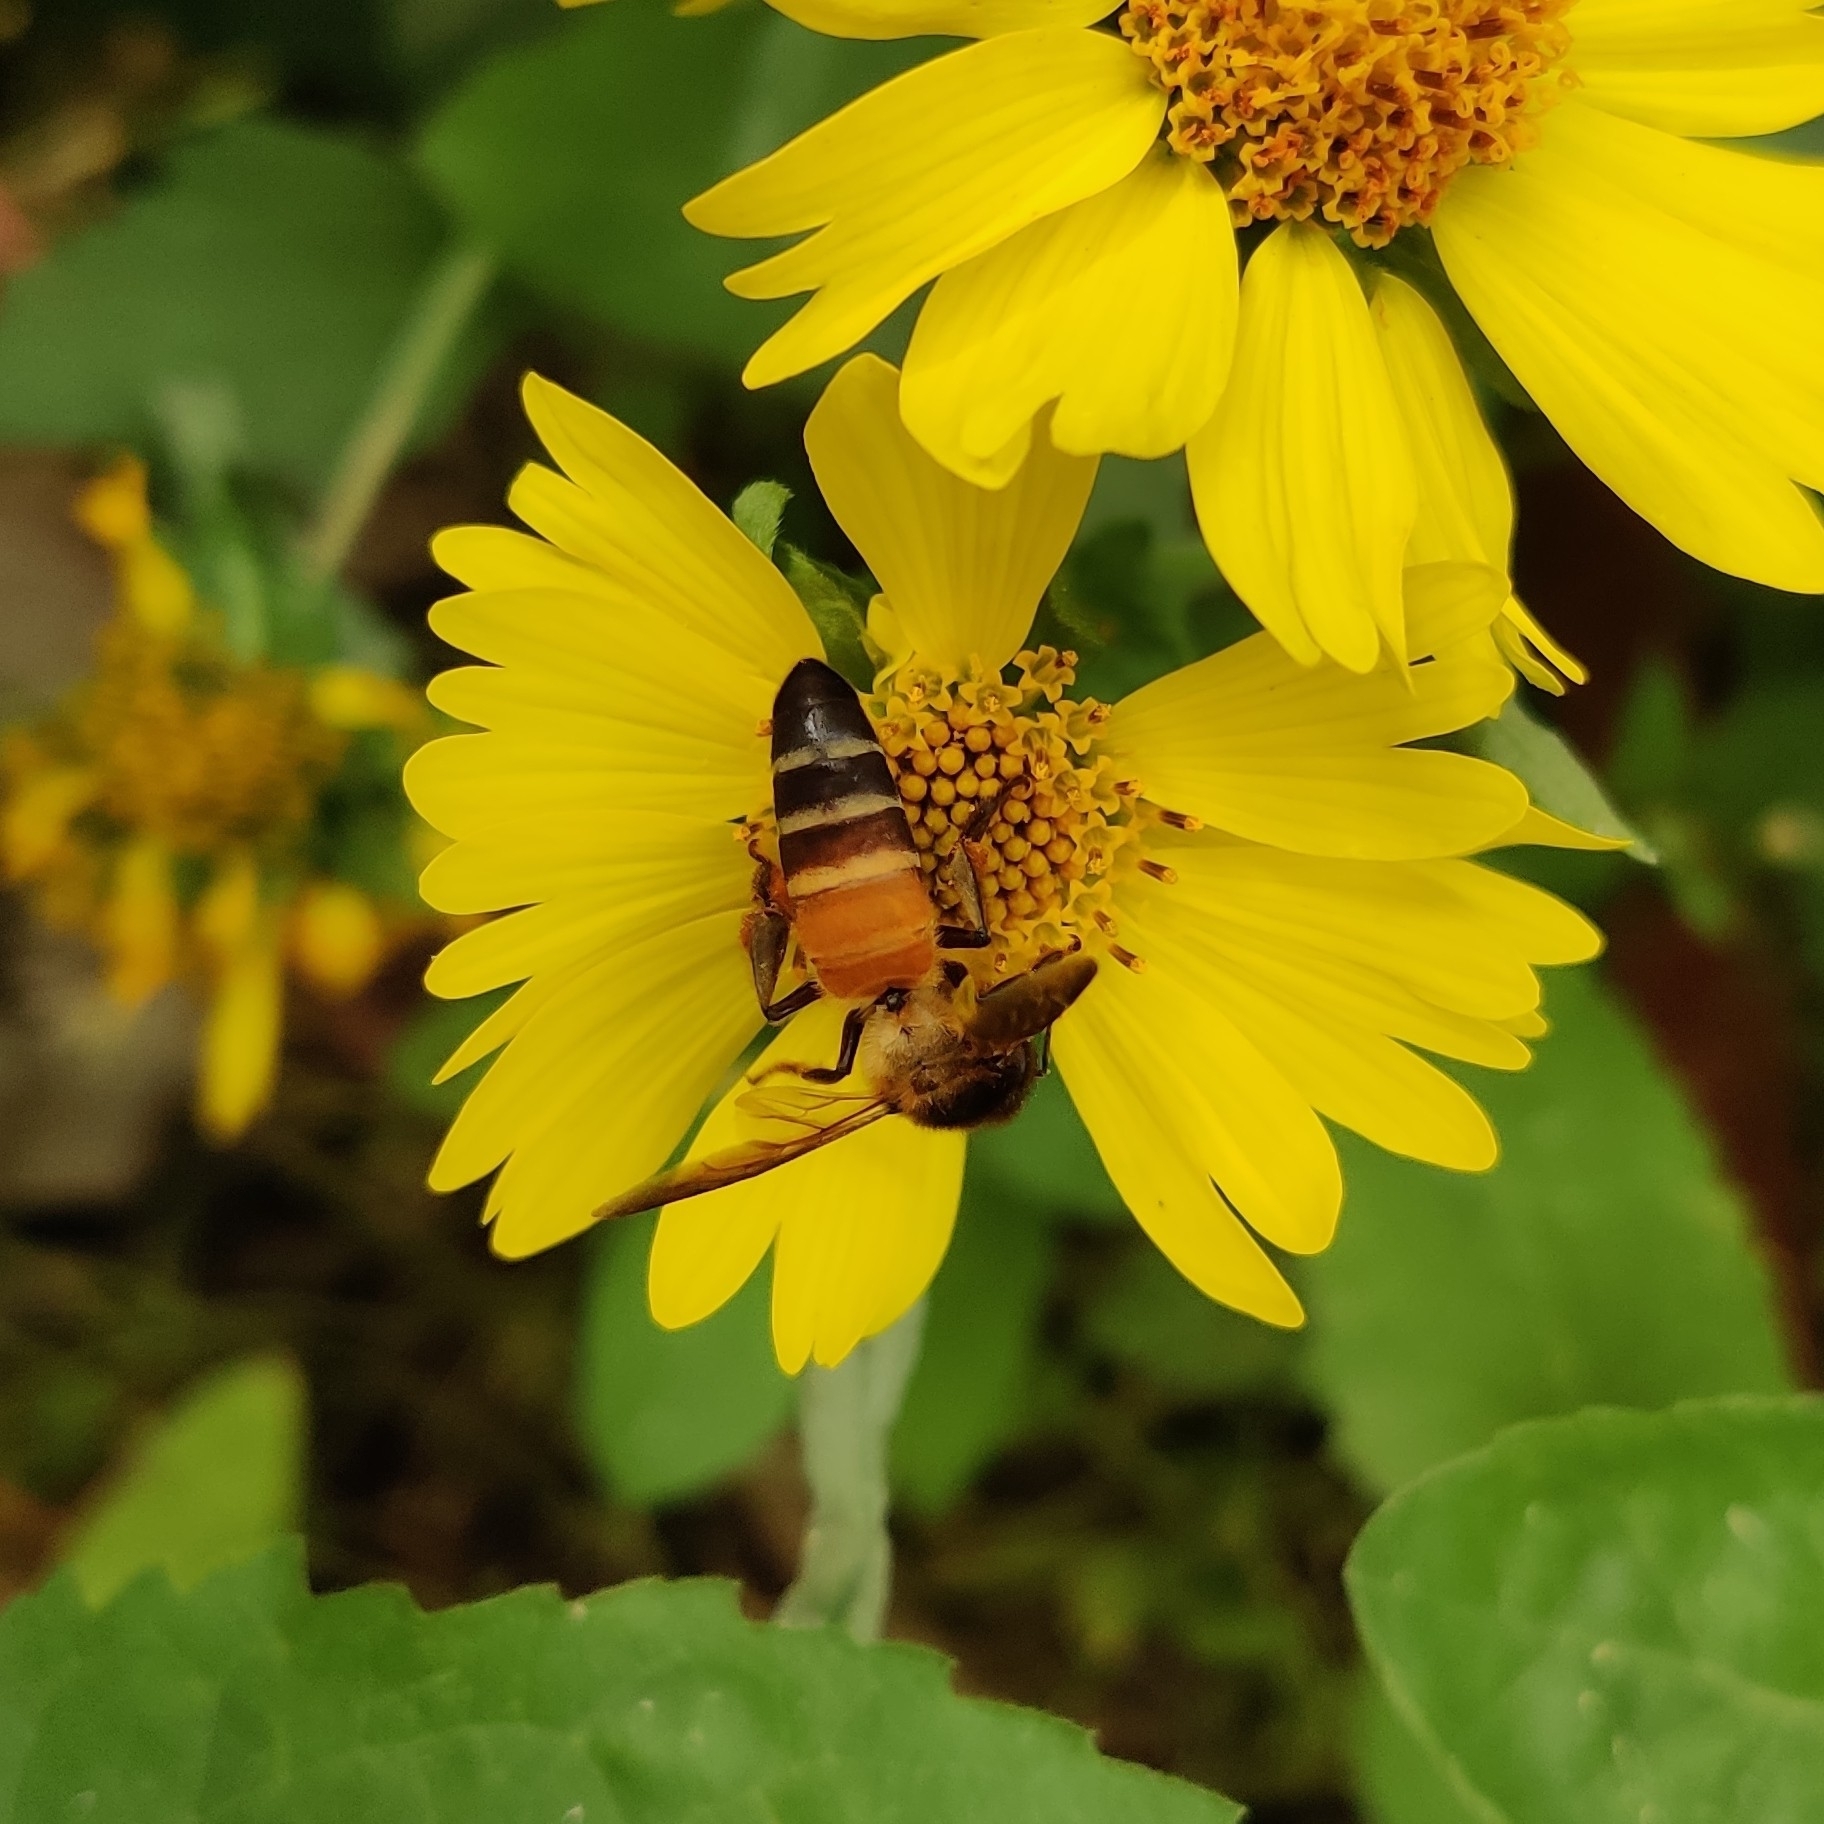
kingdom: Animalia
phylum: Arthropoda
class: Insecta
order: Hymenoptera
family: Apidae
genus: Apis
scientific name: Apis dorsata
